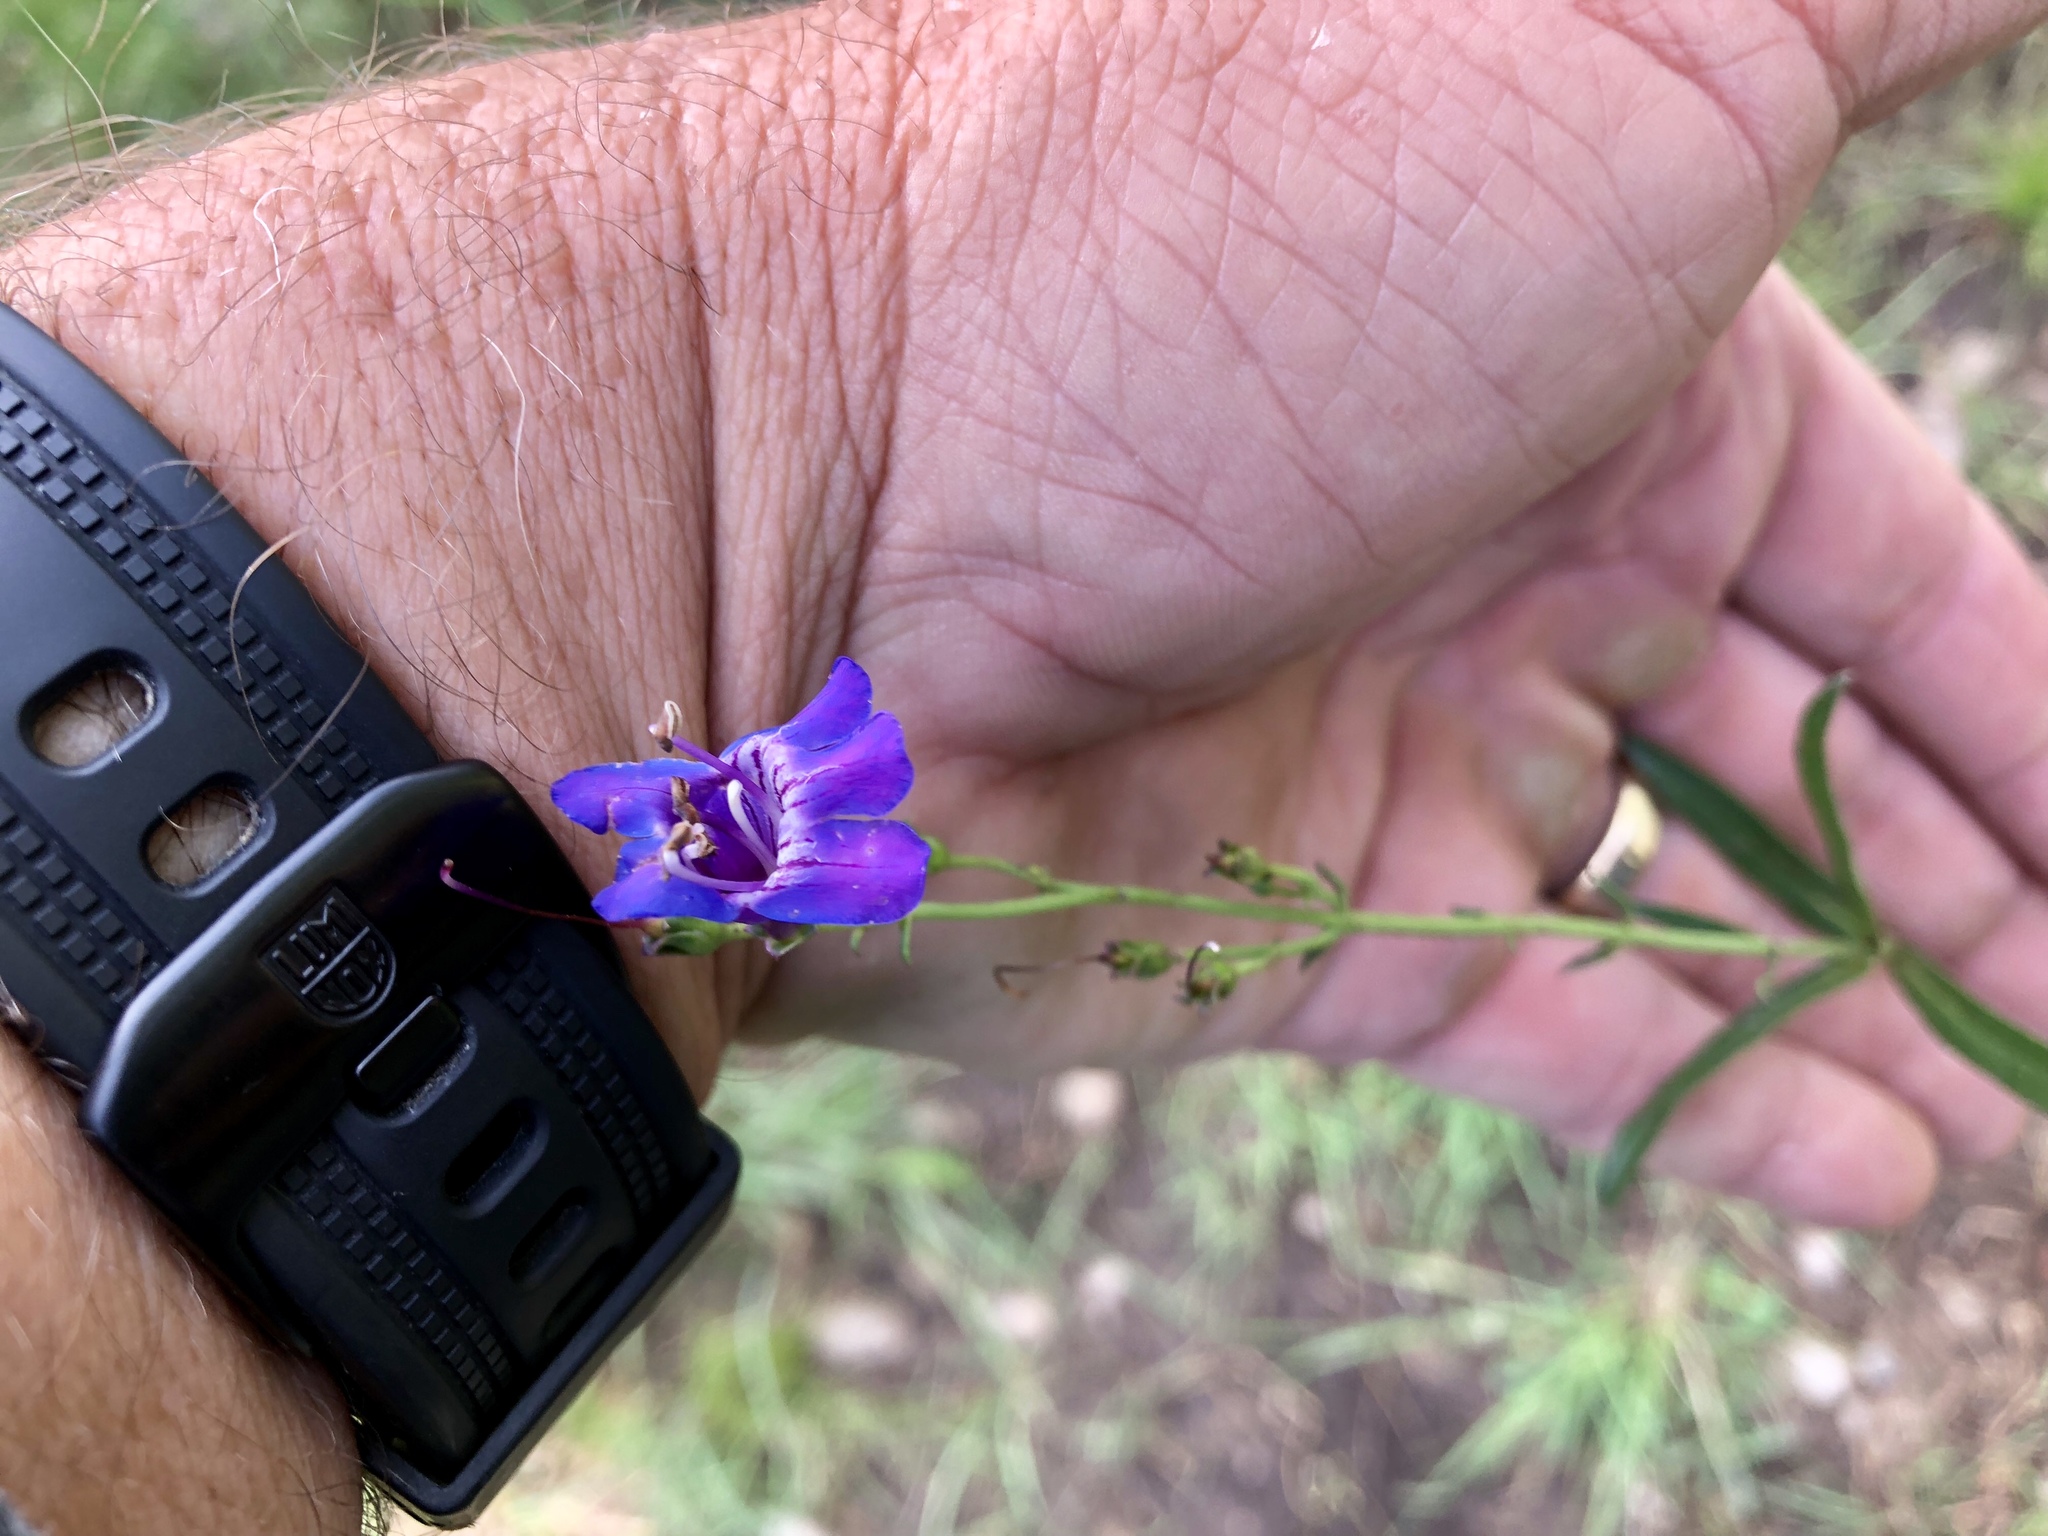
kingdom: Plantae
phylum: Tracheophyta
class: Magnoliopsida
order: Lamiales
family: Plantaginaceae
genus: Penstemon
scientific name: Penstemon neomexicanus
